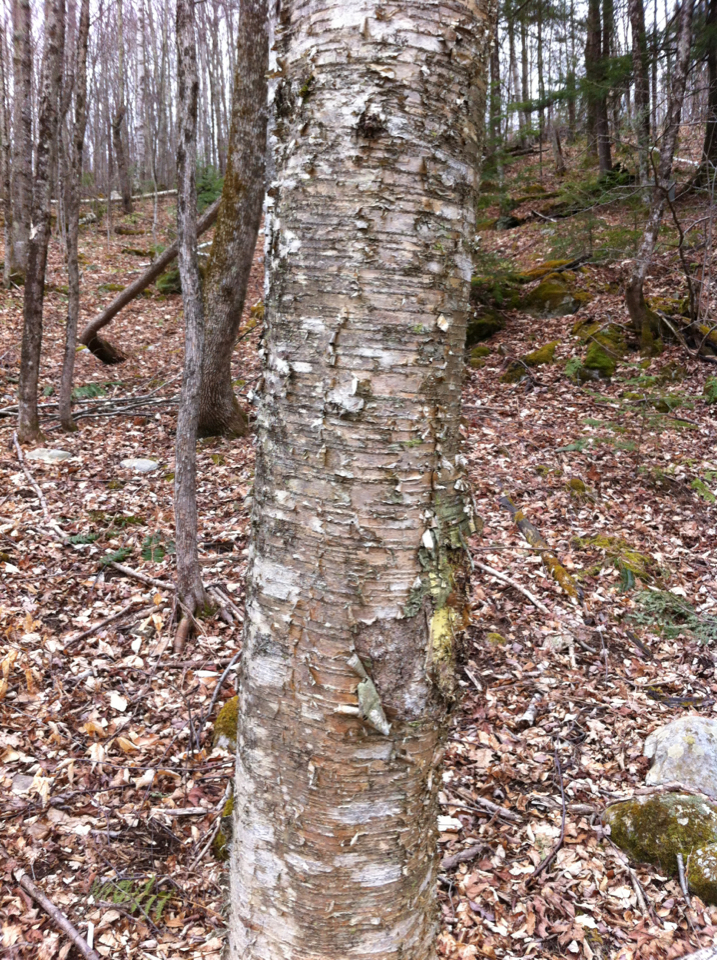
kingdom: Plantae
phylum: Tracheophyta
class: Magnoliopsida
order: Fagales
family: Betulaceae
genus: Betula
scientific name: Betula alleghaniensis
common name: Yellow birch
